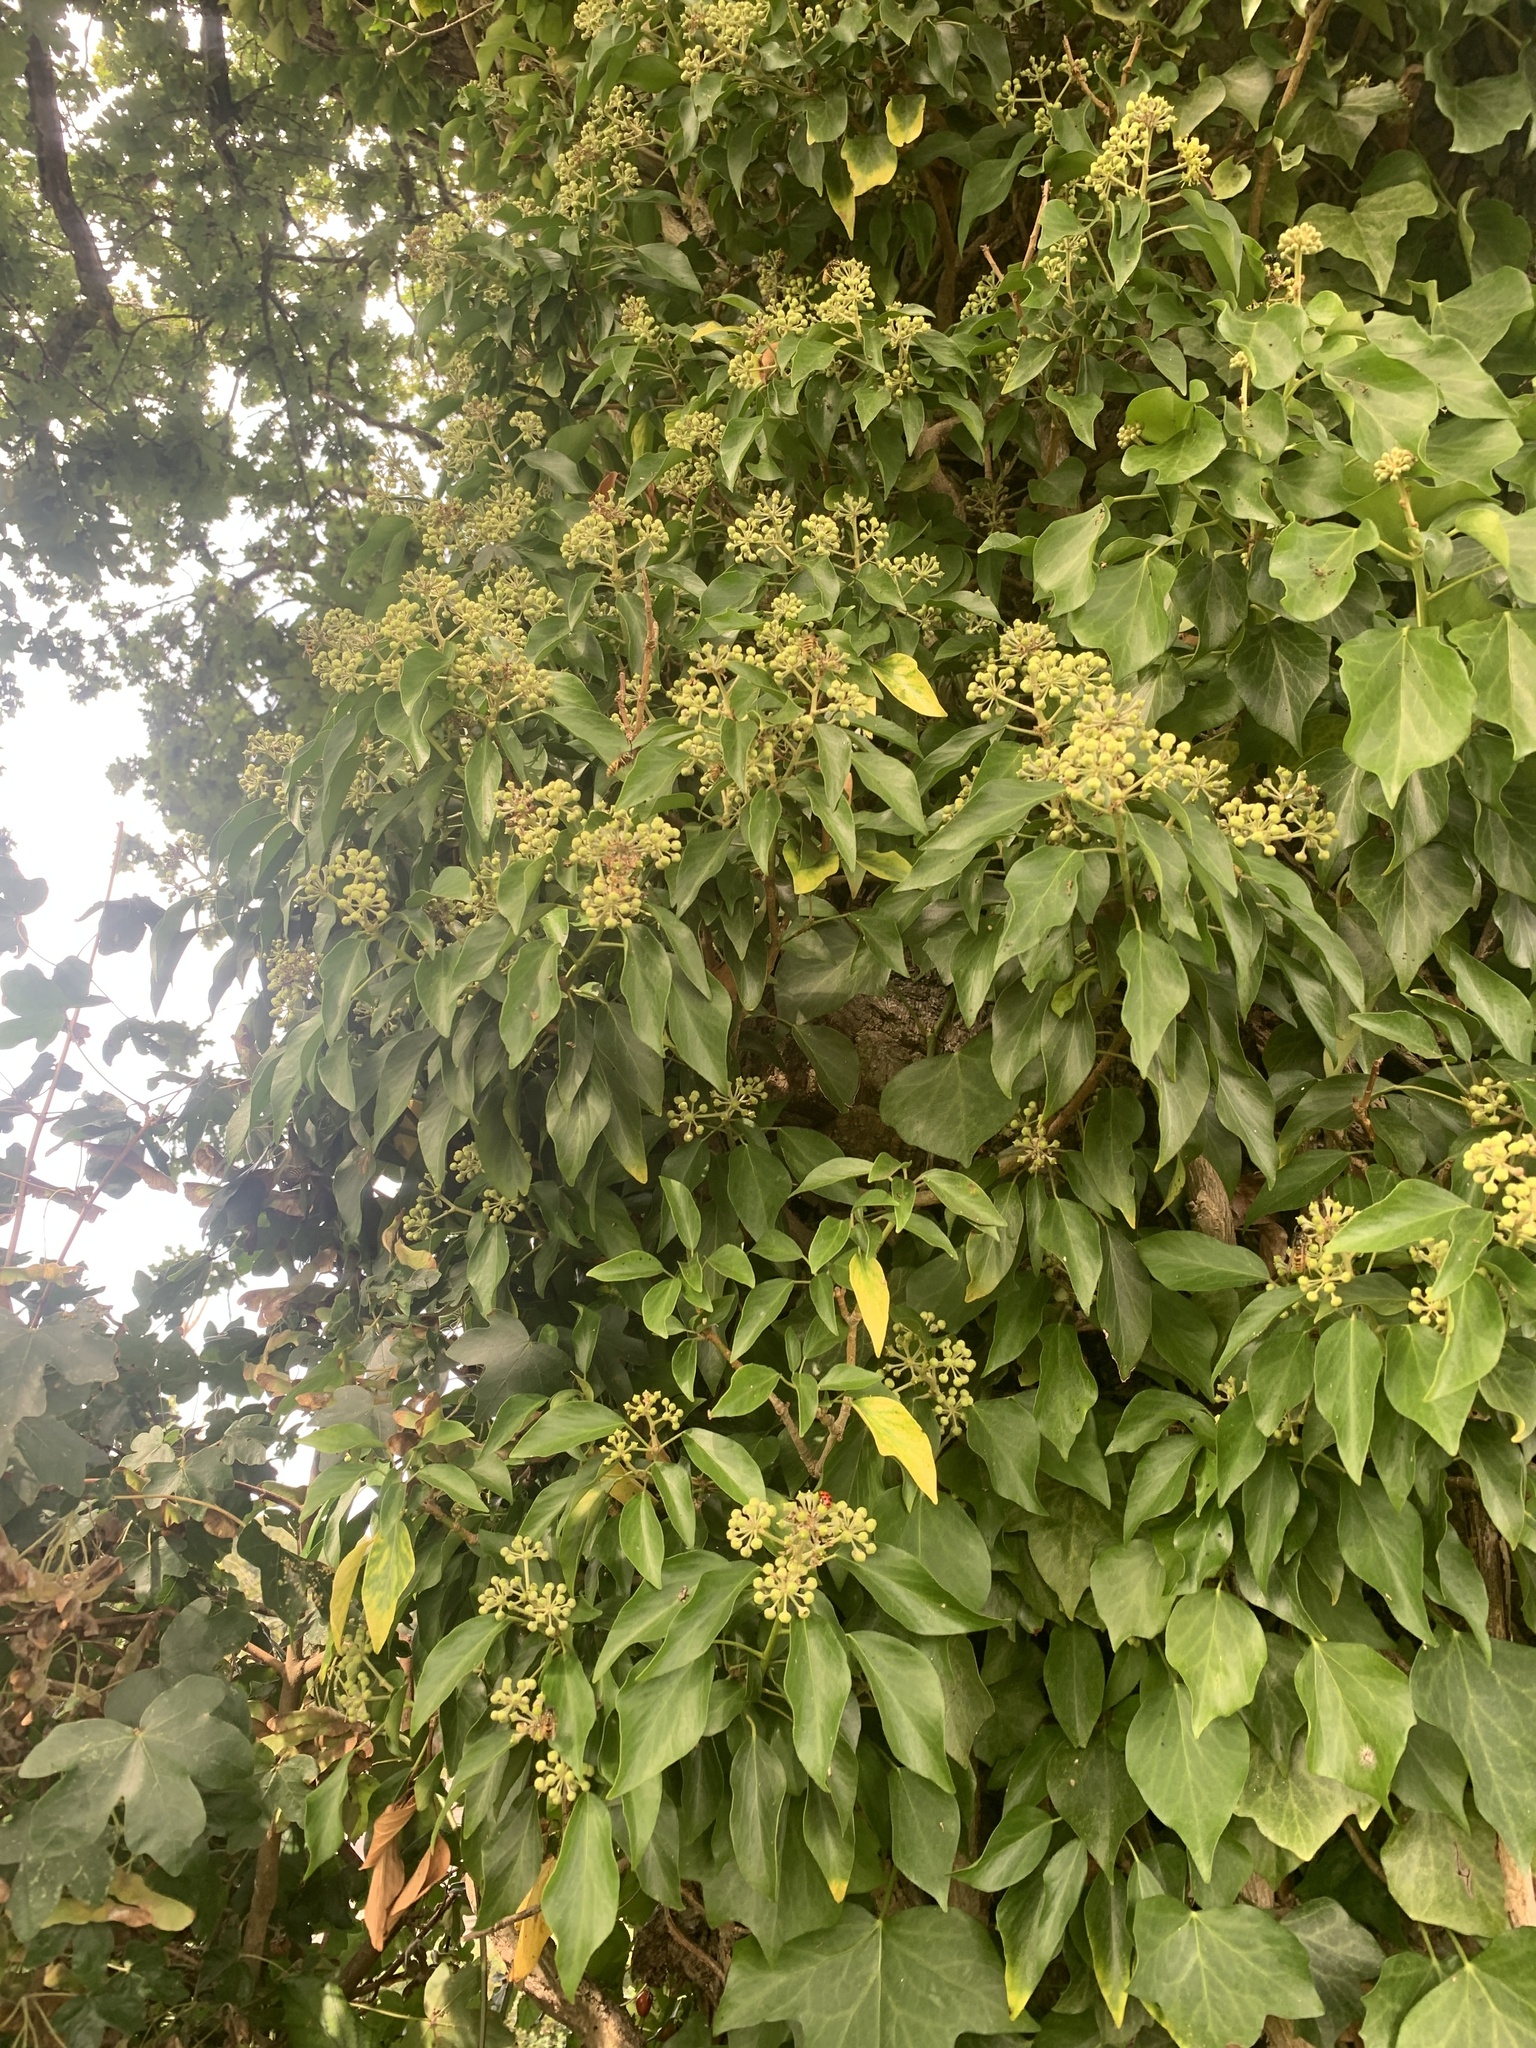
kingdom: Plantae
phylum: Tracheophyta
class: Magnoliopsida
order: Apiales
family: Araliaceae
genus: Hedera
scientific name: Hedera helix
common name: Ivy
